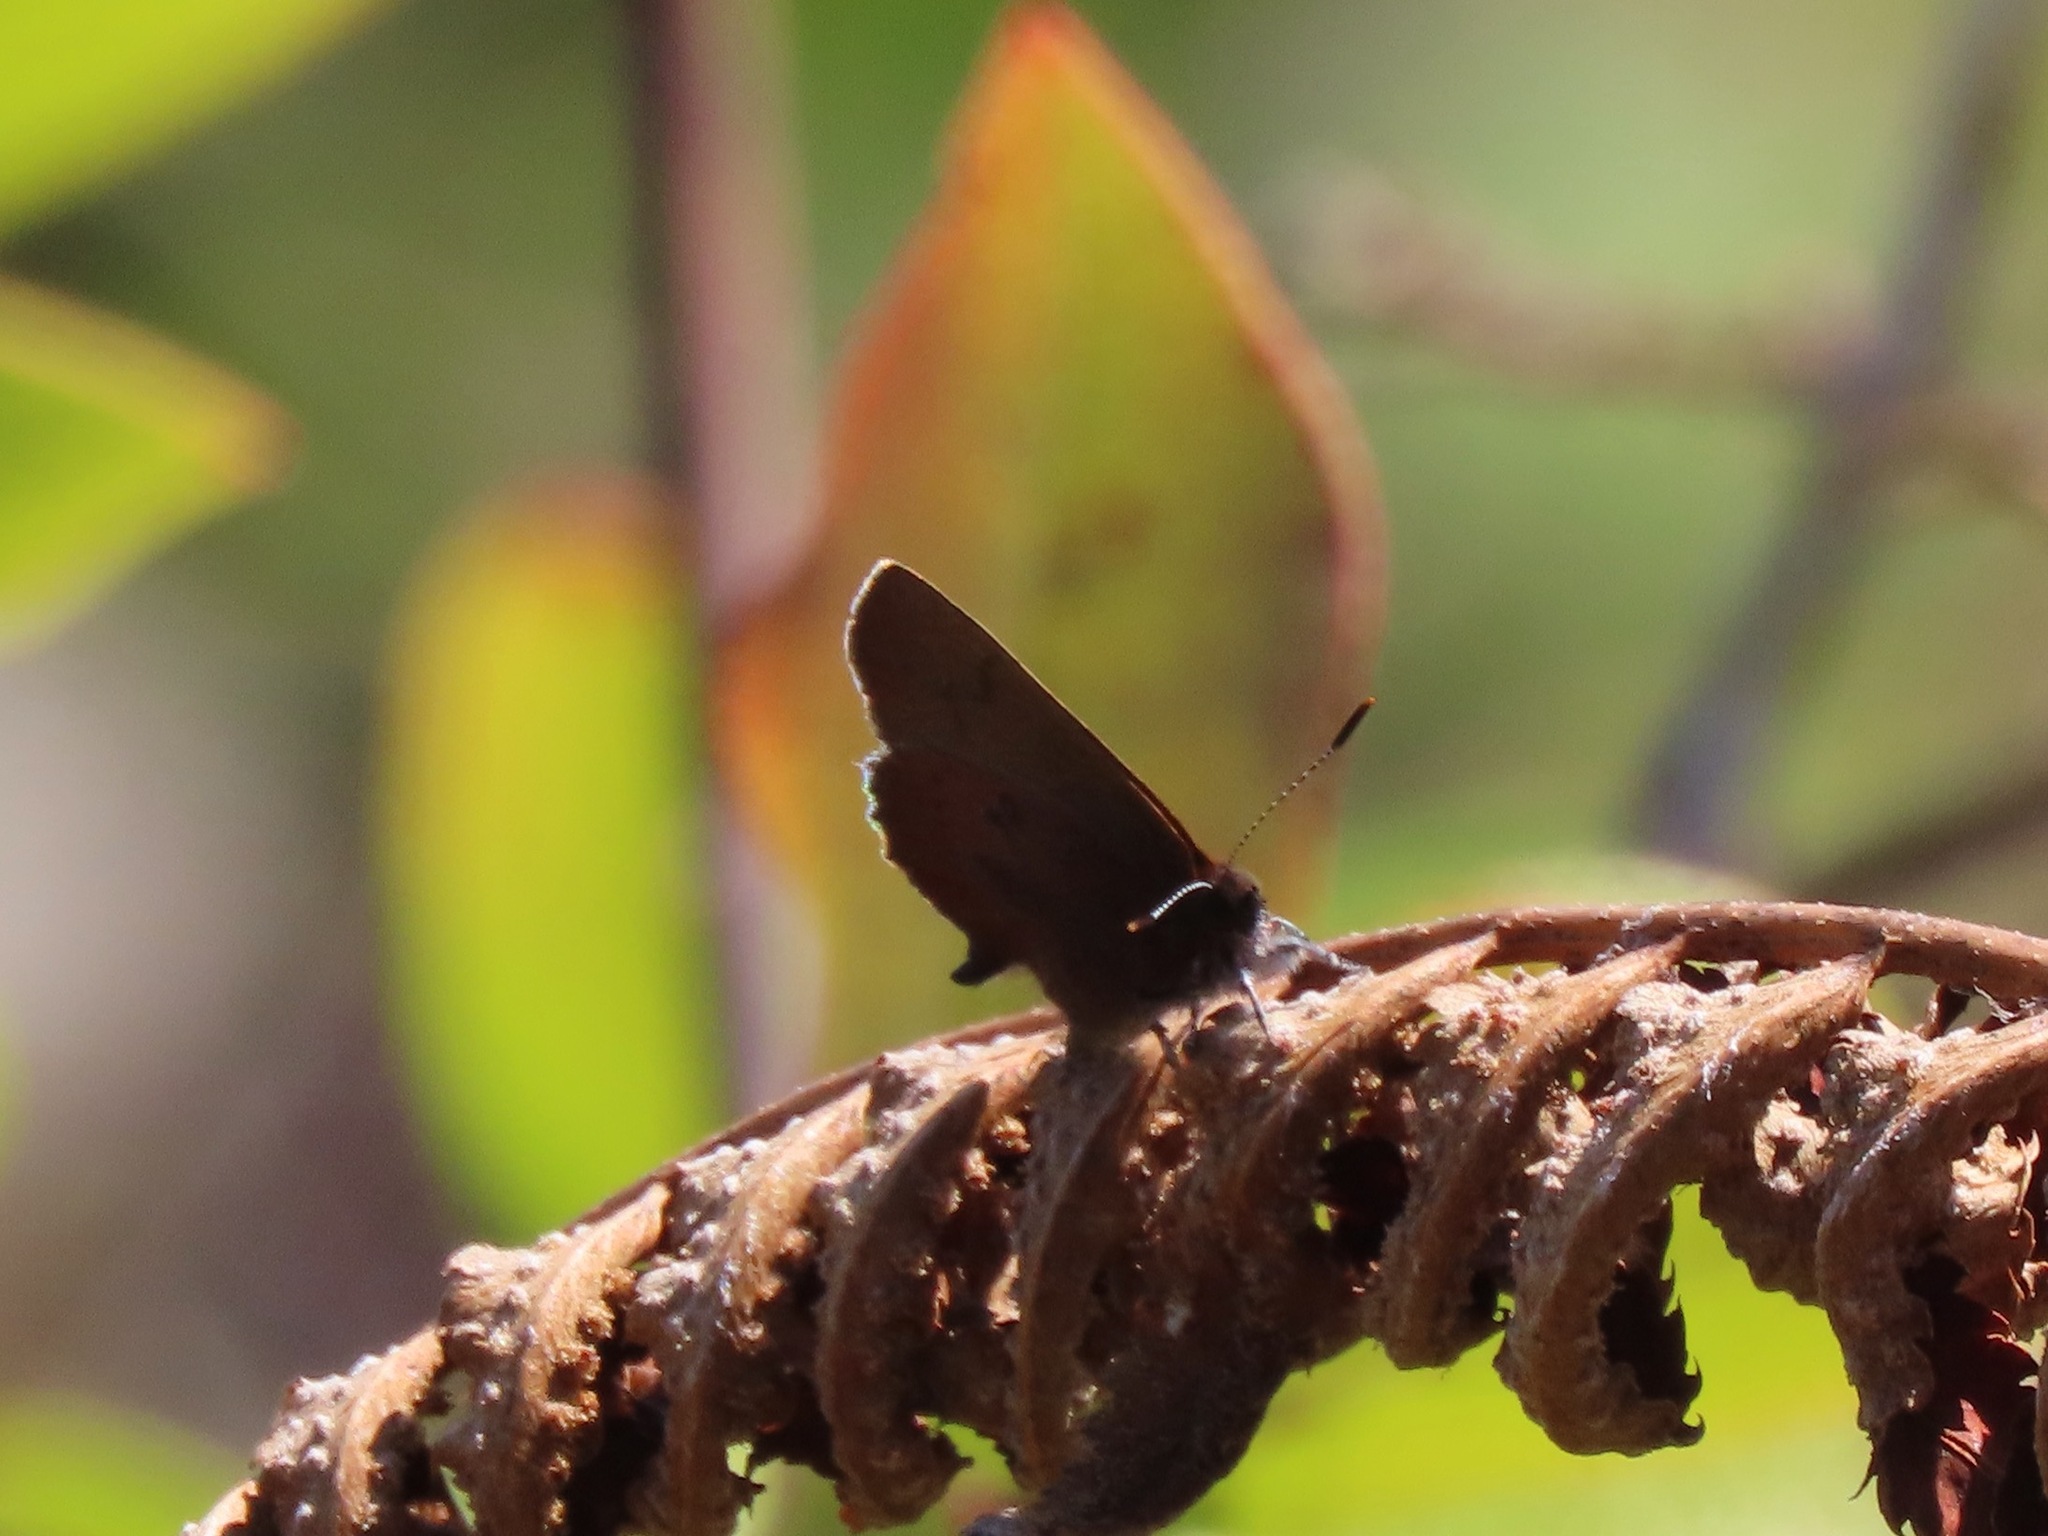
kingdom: Animalia
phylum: Arthropoda
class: Insecta
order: Lepidoptera
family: Lycaenidae
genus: Incisalia
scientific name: Incisalia irioides
